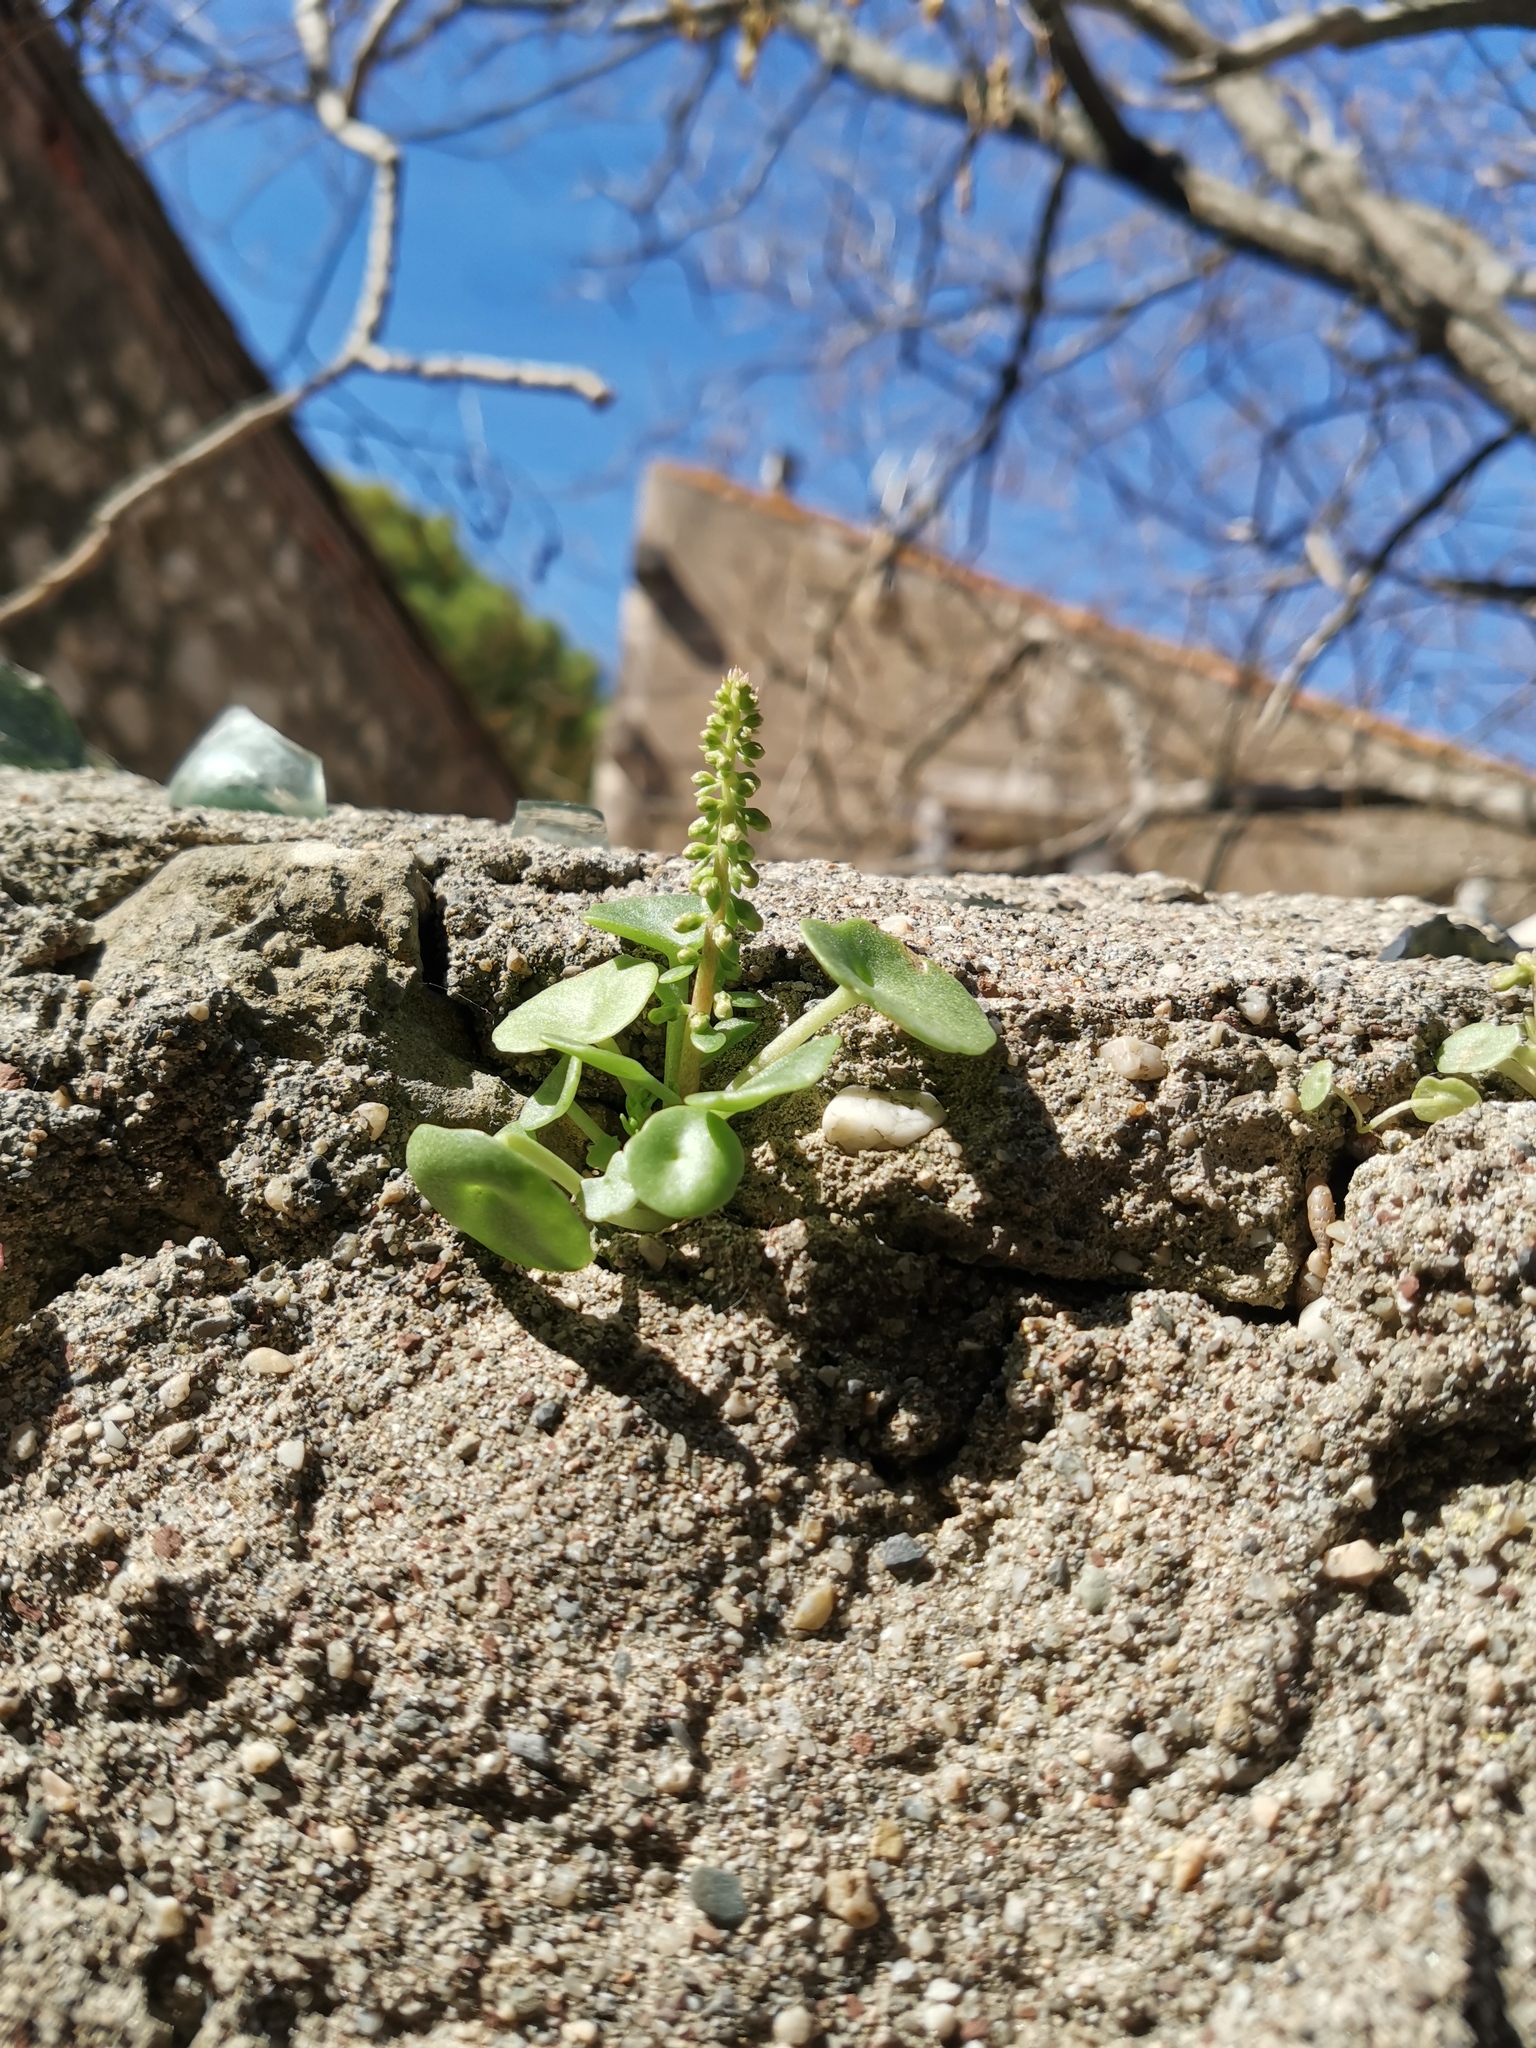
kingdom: Plantae
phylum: Tracheophyta
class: Magnoliopsida
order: Saxifragales
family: Crassulaceae
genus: Umbilicus
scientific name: Umbilicus rupestris
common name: Navelwort
